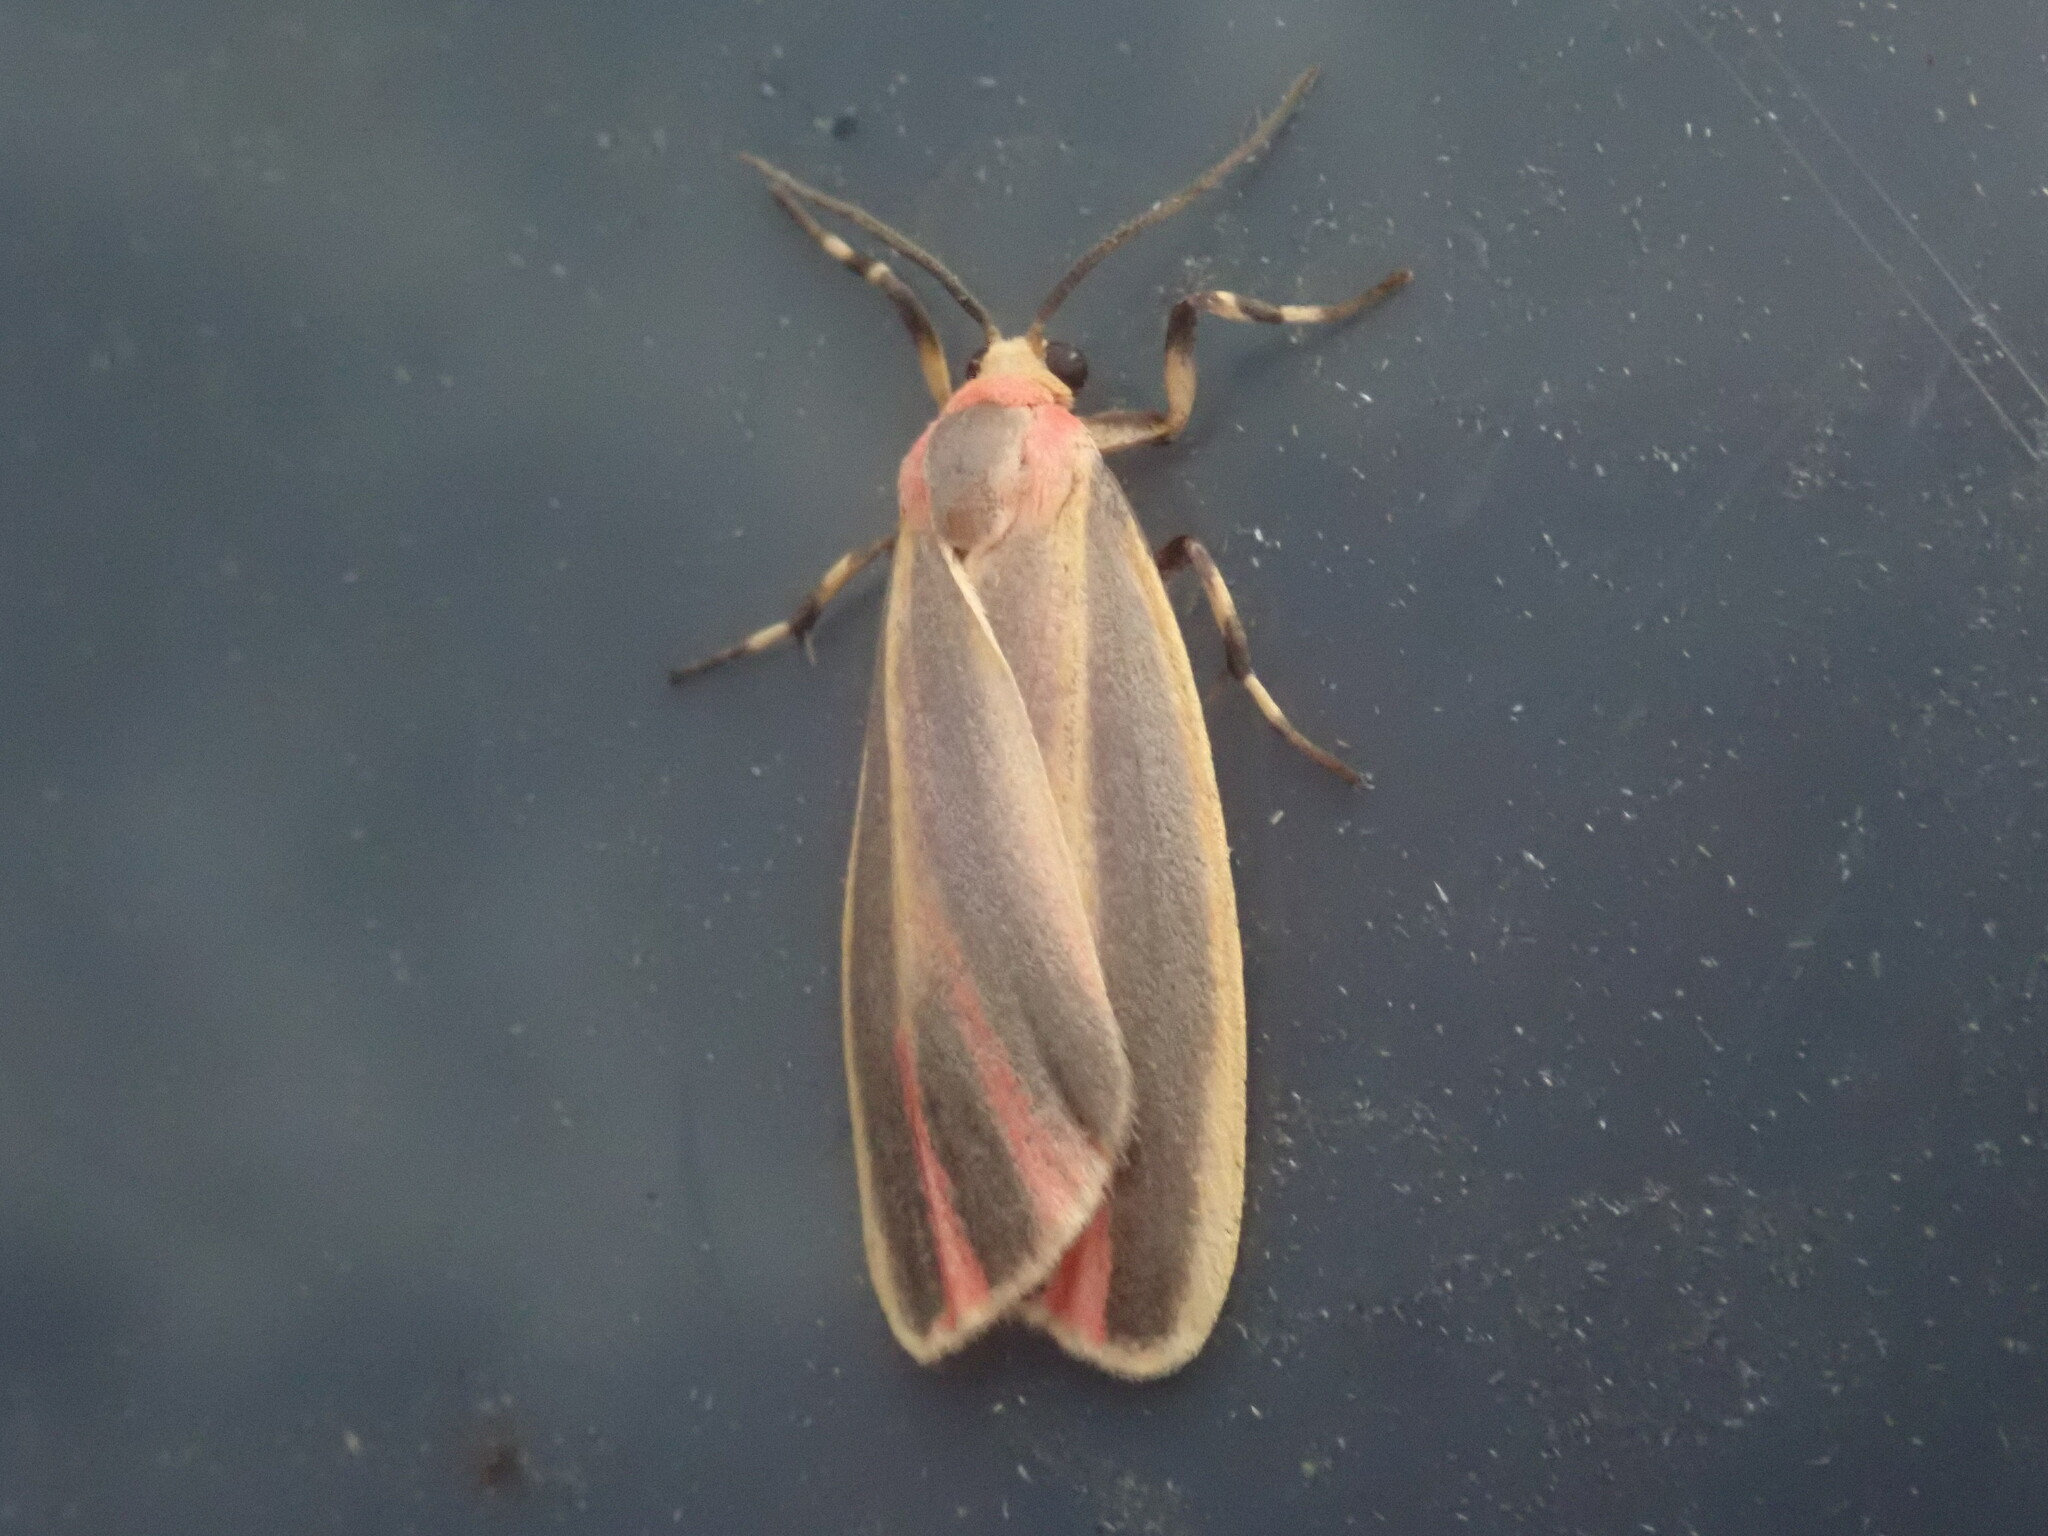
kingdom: Animalia
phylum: Arthropoda
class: Insecta
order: Lepidoptera
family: Erebidae
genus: Hypoprepia
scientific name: Hypoprepia fucosa
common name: Painted lichen moth
